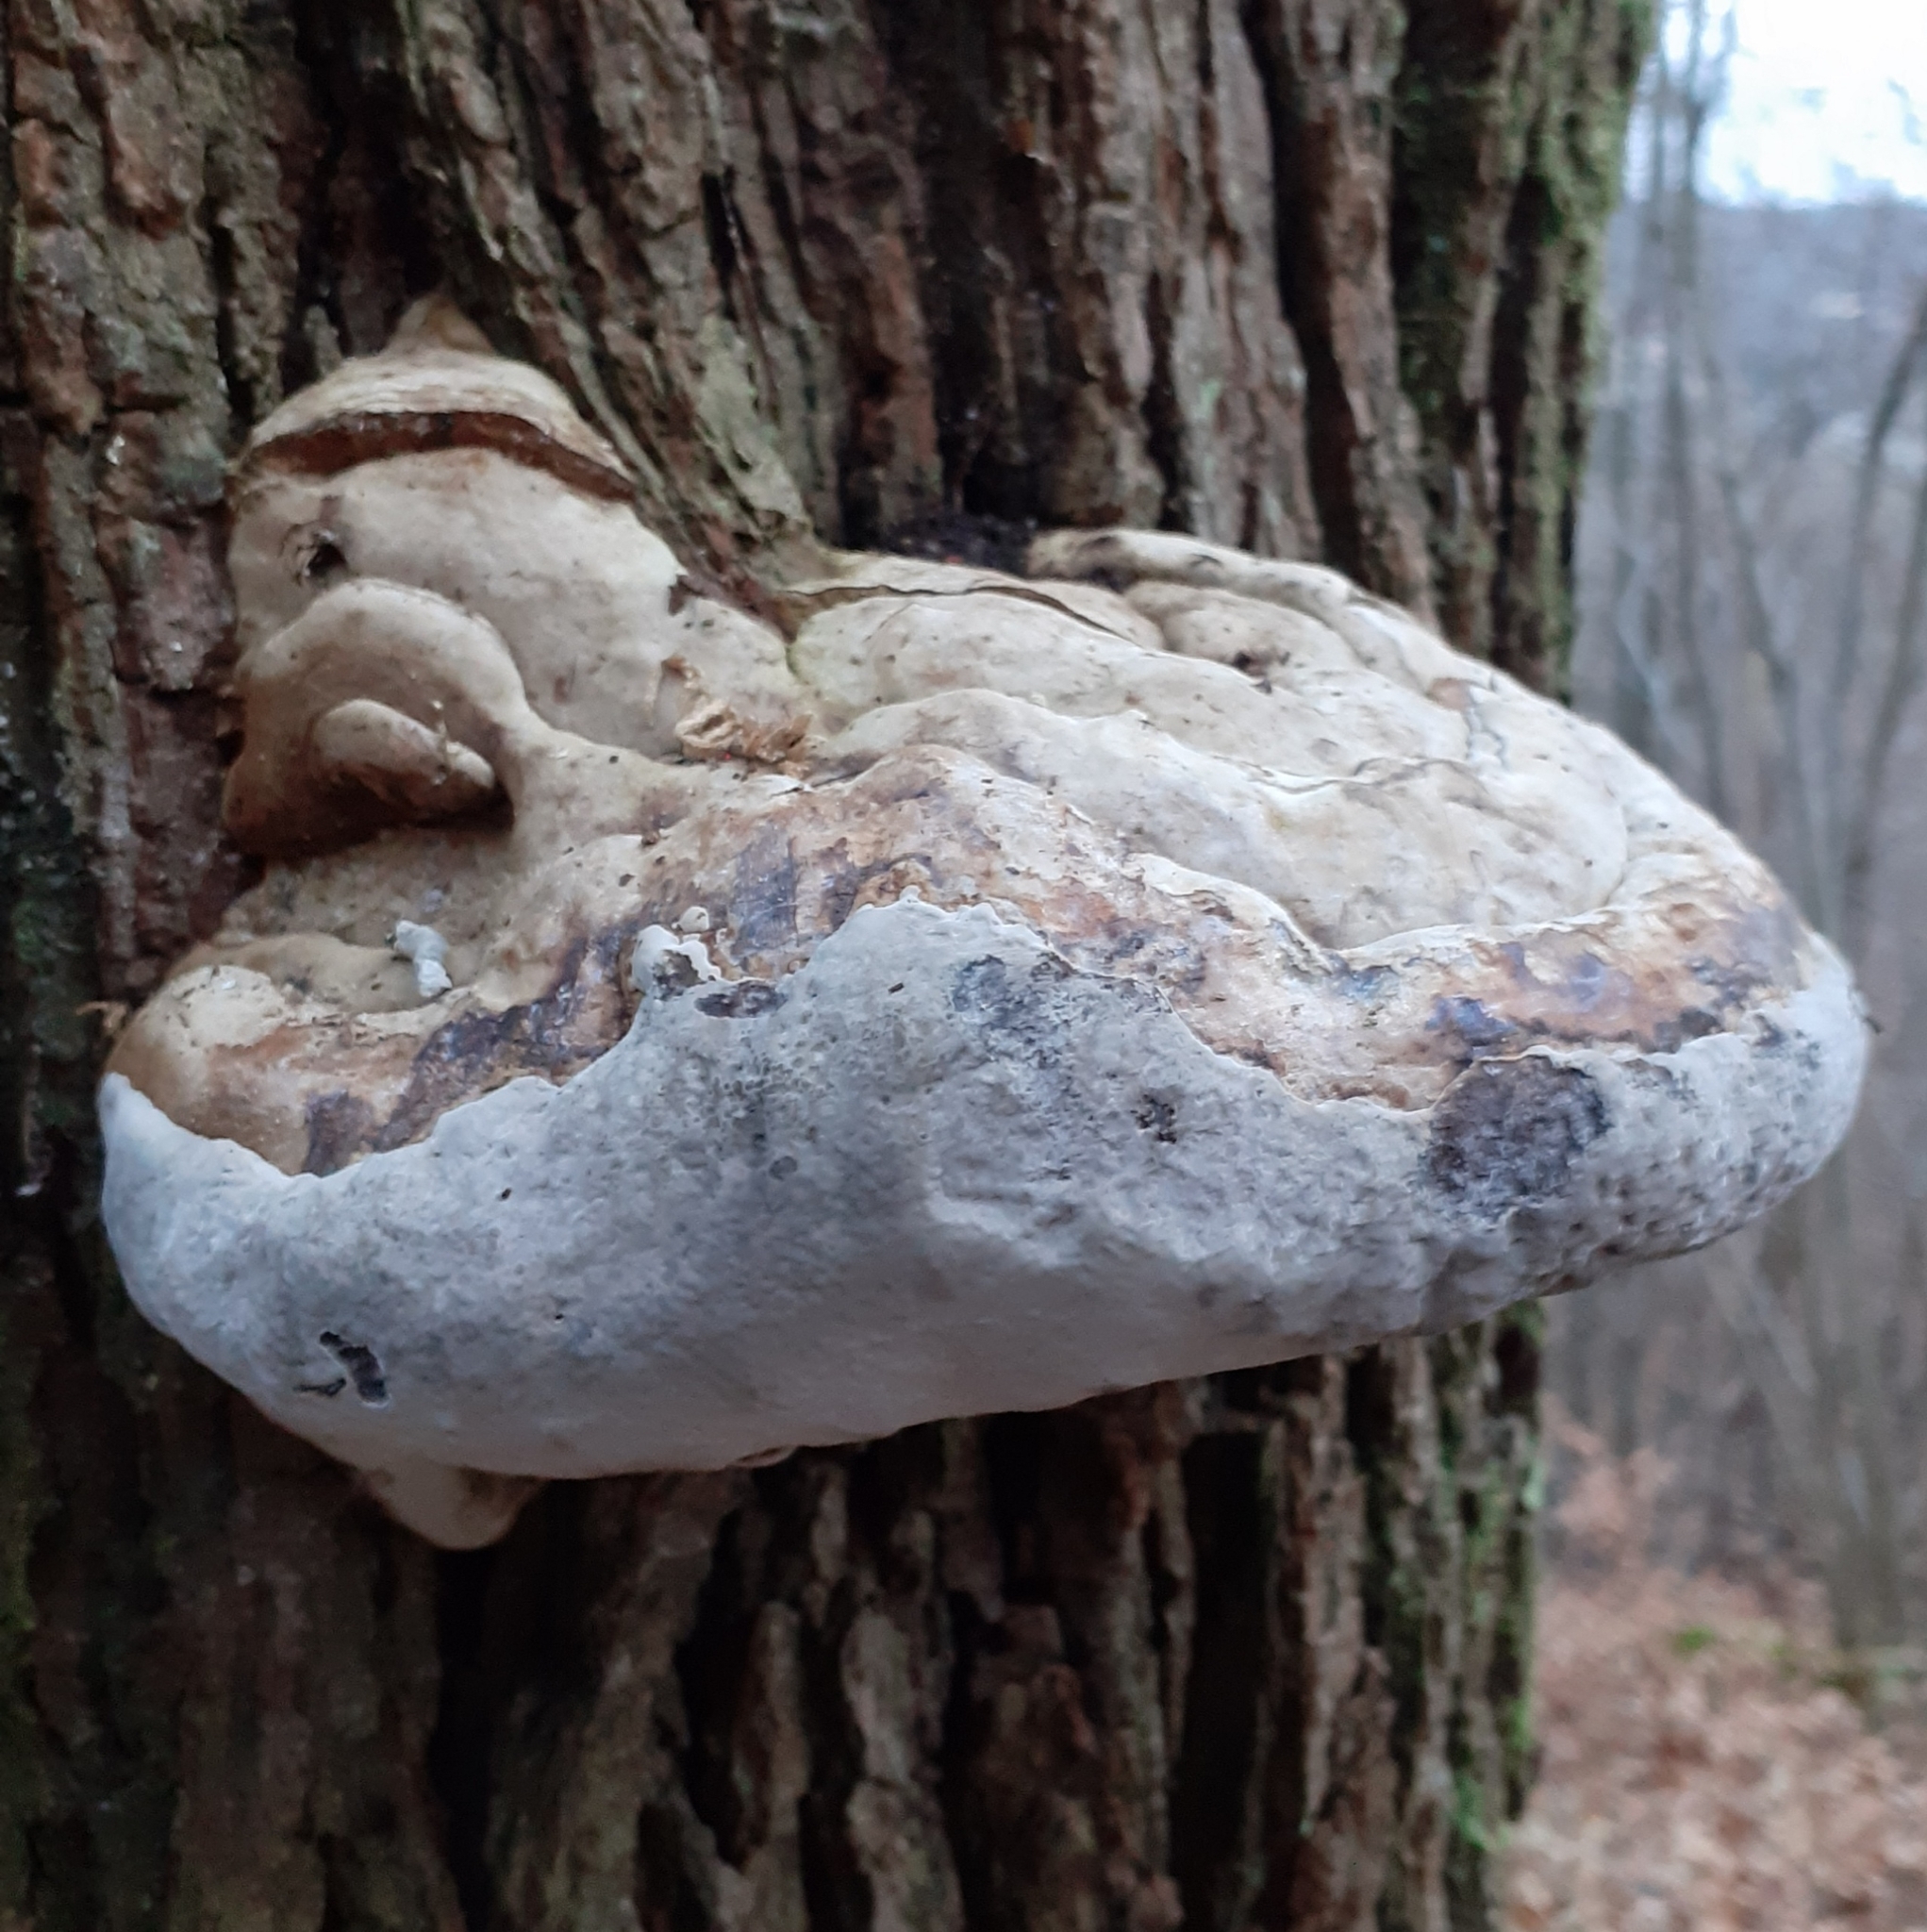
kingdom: Fungi
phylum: Basidiomycota
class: Agaricomycetes
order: Polyporales
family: Polyporaceae
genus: Fomes
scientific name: Fomes fomentarius
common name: Hoof fungus
